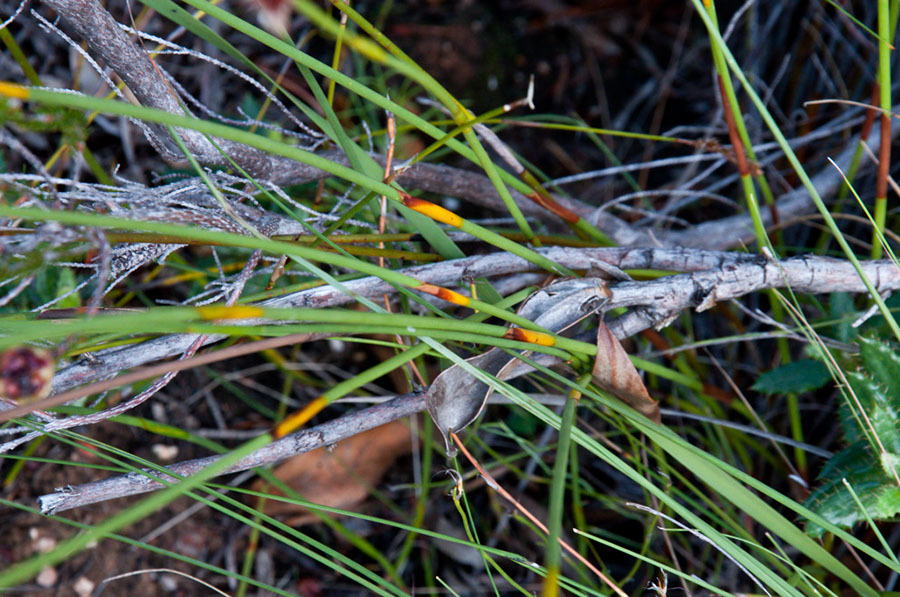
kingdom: Plantae
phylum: Tracheophyta
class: Liliopsida
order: Poales
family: Restionaceae
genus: Hypodiscus
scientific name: Hypodiscus aristatus
